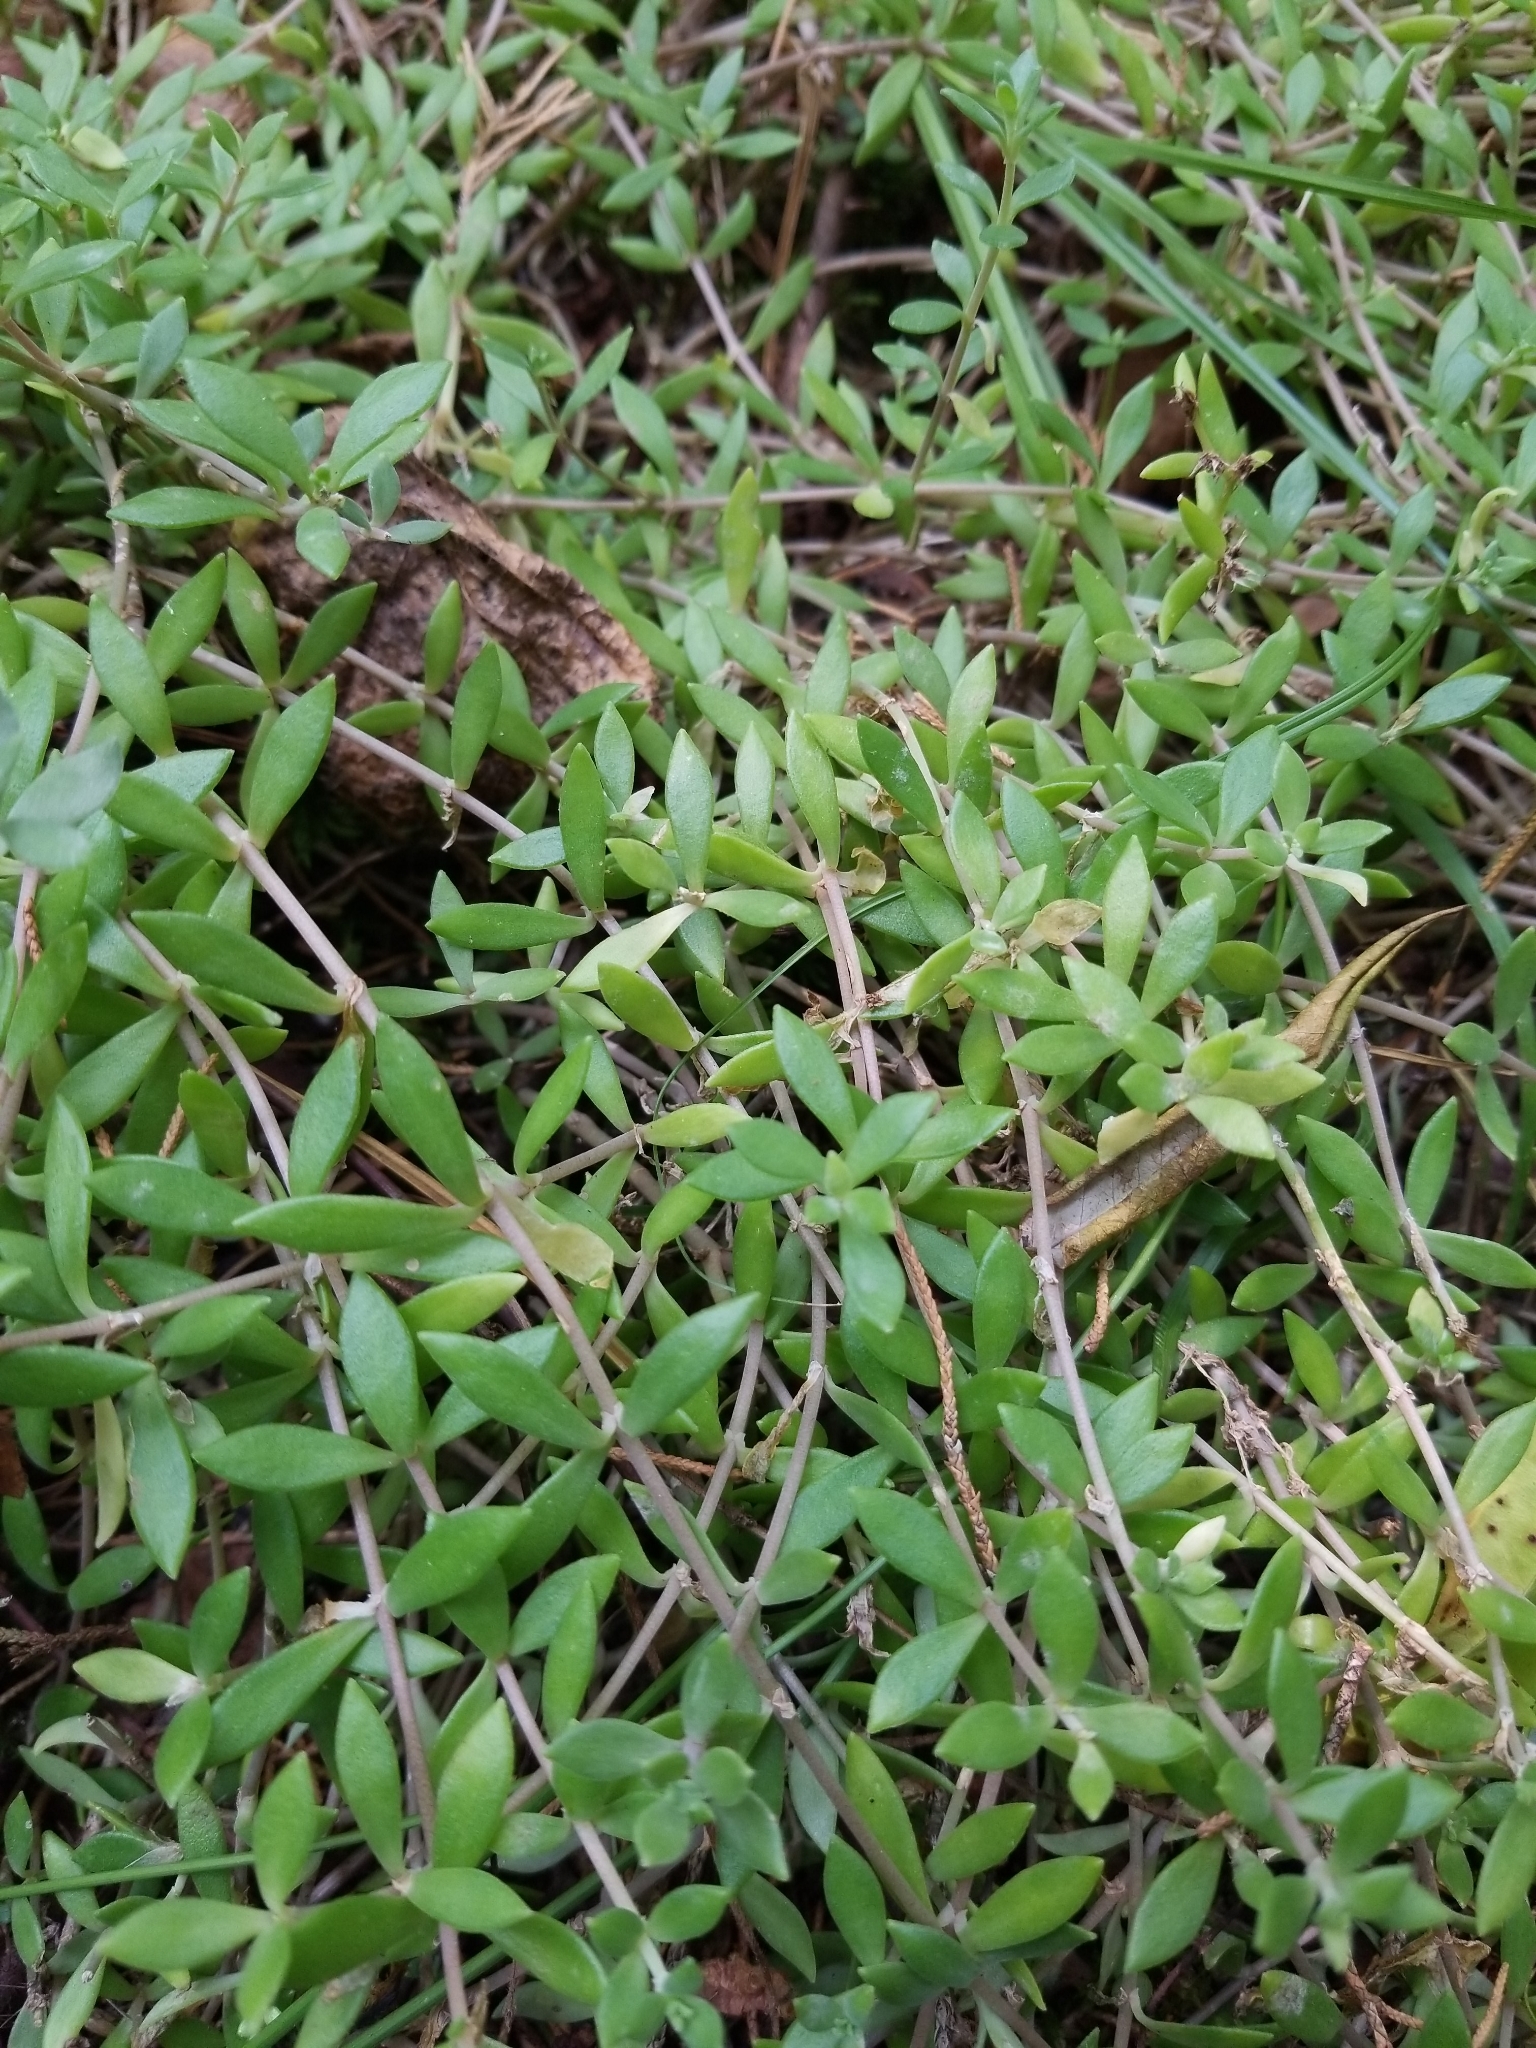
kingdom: Plantae
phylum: Tracheophyta
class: Magnoliopsida
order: Saxifragales
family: Crassulaceae
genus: Sedum
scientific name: Sedum sarmentosum
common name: Stringy stonecrop
